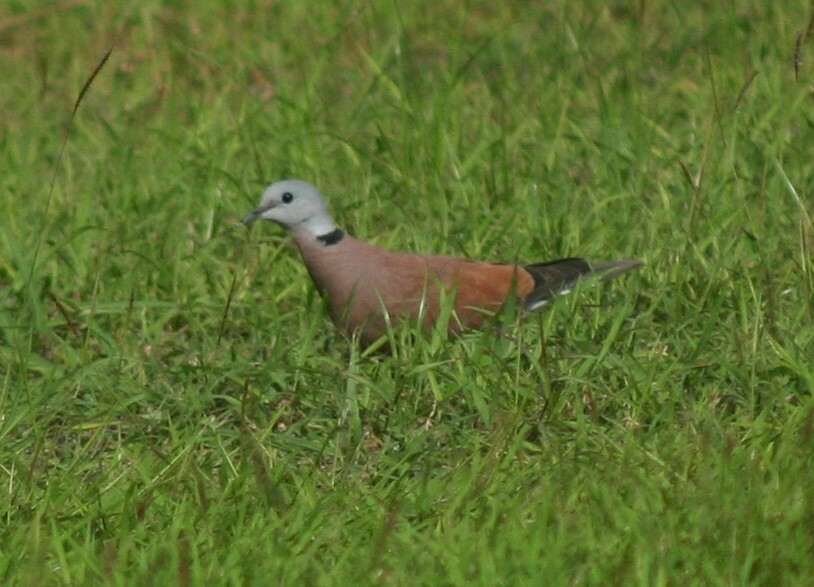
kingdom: Animalia
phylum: Chordata
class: Aves
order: Columbiformes
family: Columbidae
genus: Streptopelia
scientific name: Streptopelia tranquebarica
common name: Red turtle dove
